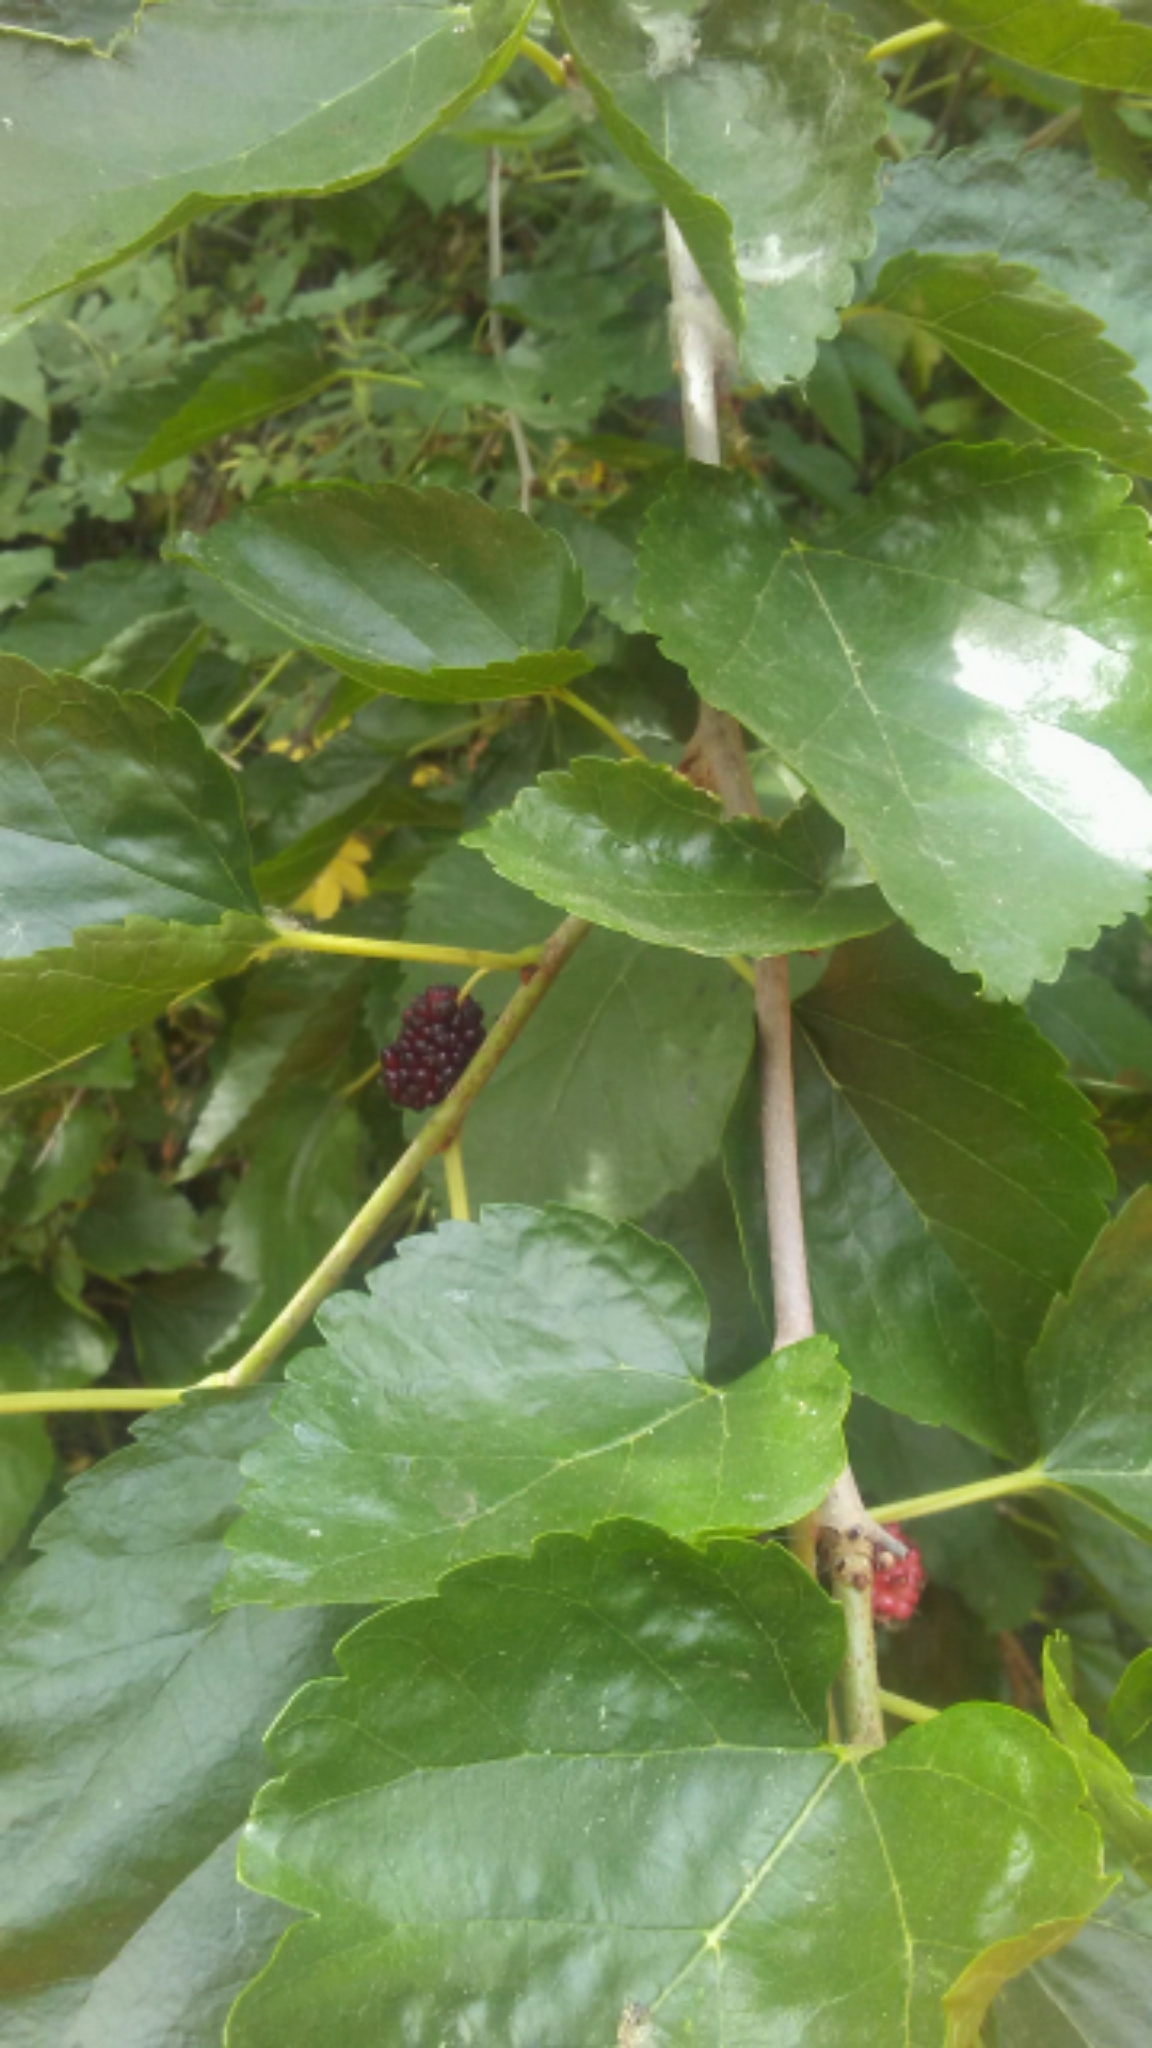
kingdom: Plantae
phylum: Tracheophyta
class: Magnoliopsida
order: Rosales
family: Moraceae
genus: Morus
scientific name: Morus alba
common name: White mulberry
